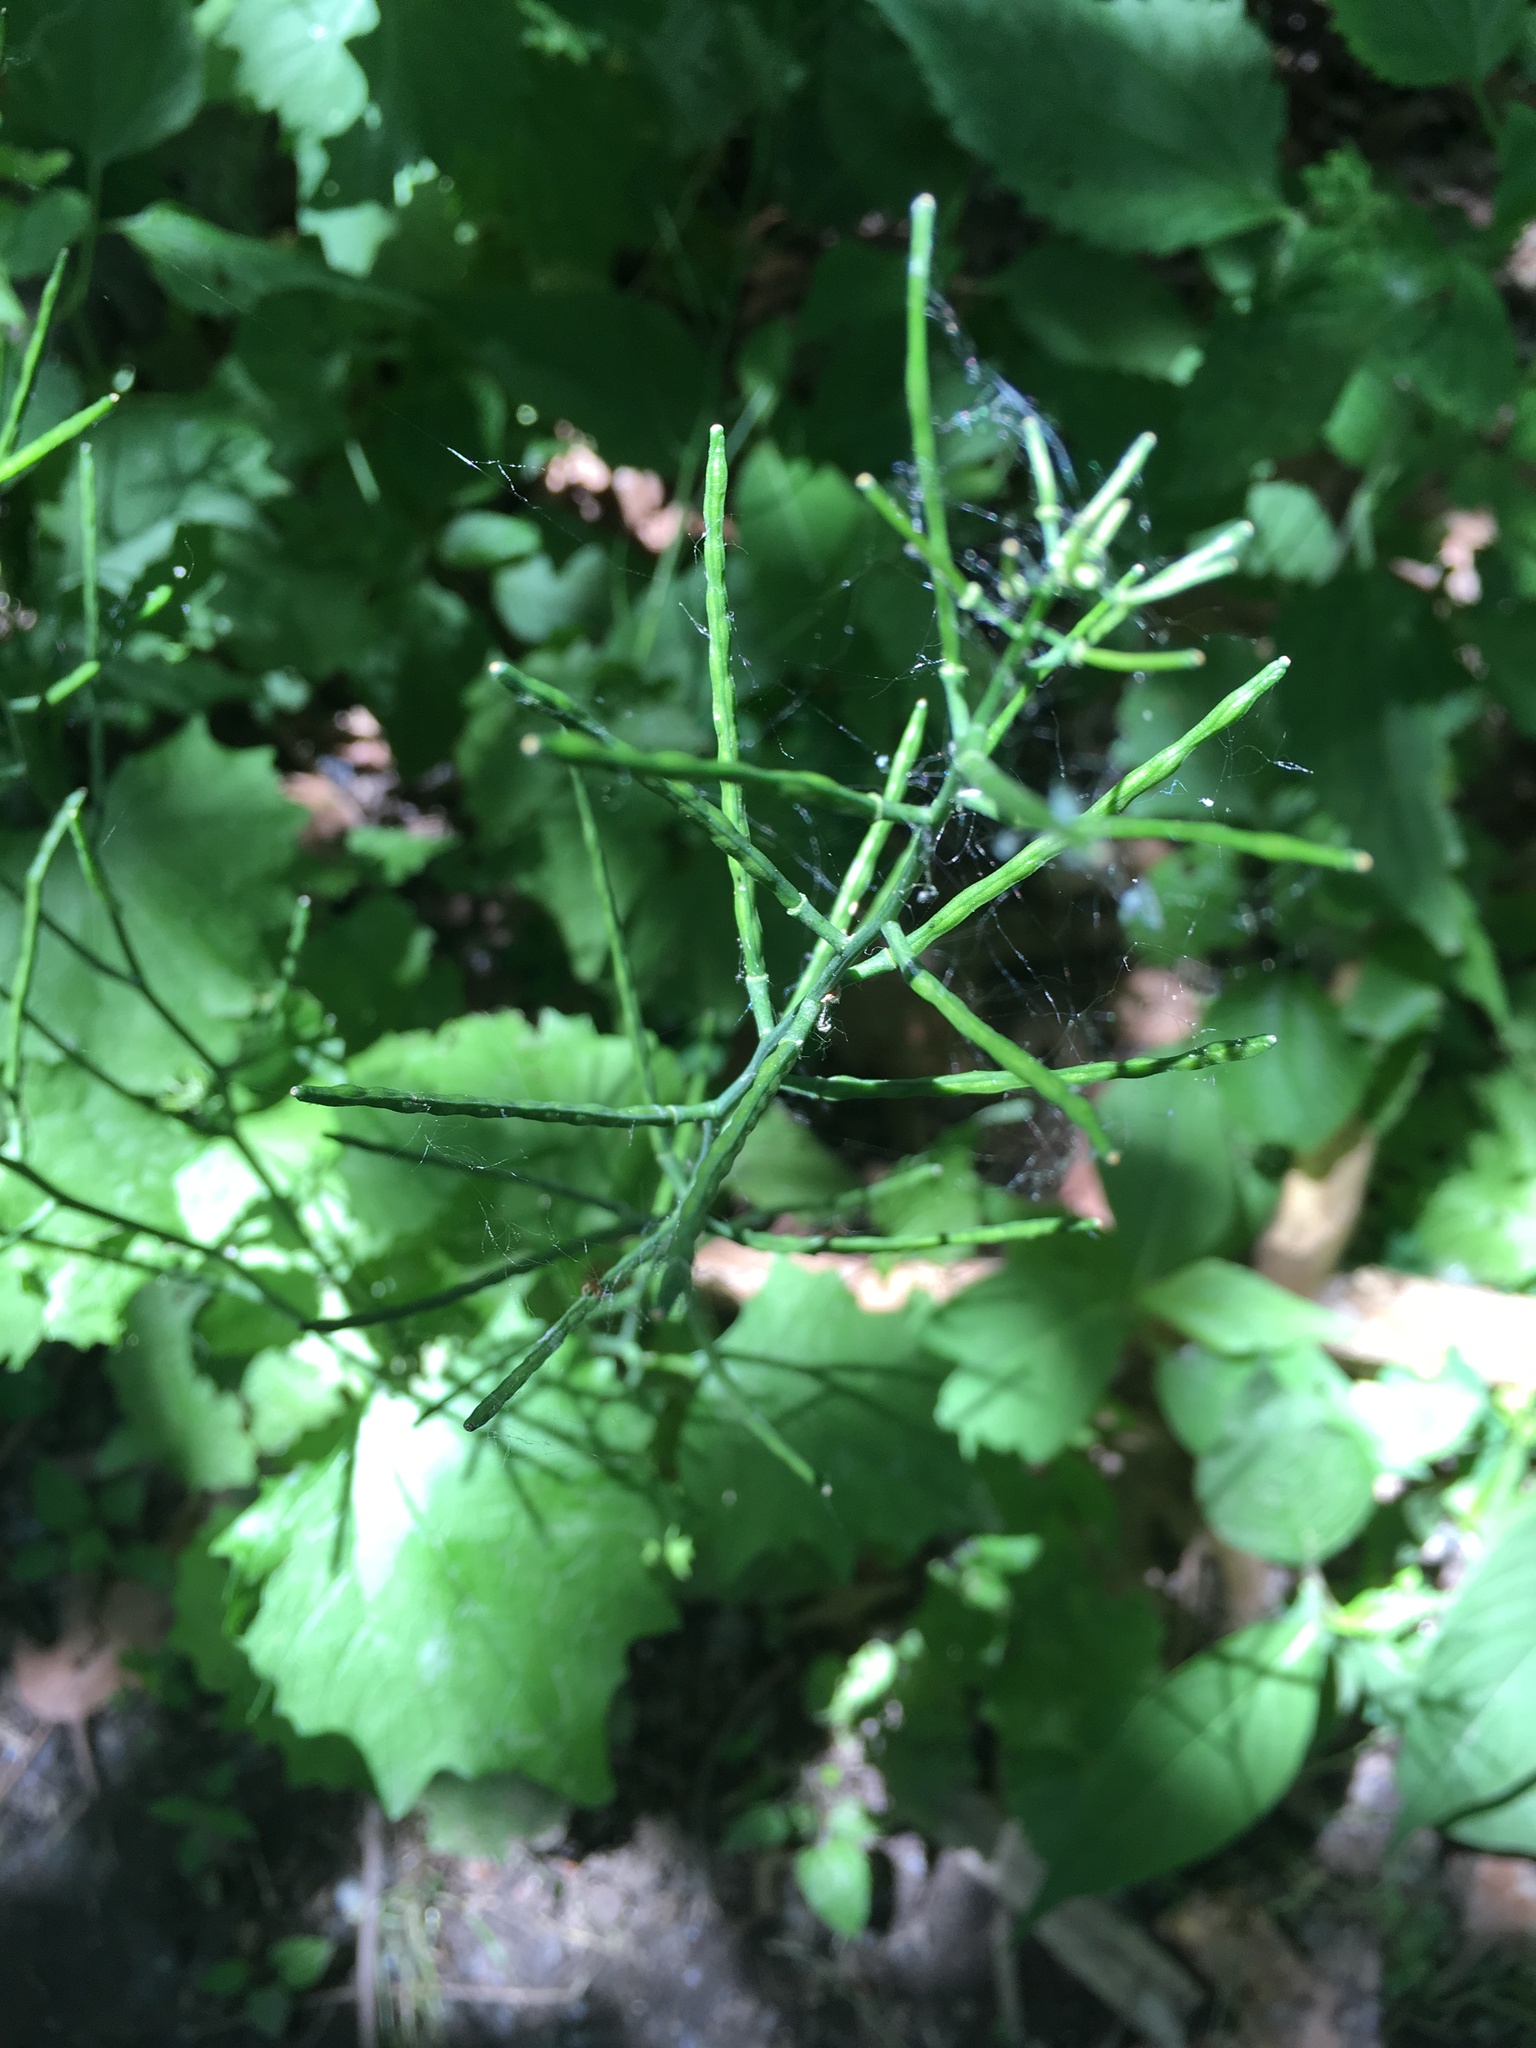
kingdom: Plantae
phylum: Tracheophyta
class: Magnoliopsida
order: Brassicales
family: Brassicaceae
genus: Alliaria
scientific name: Alliaria petiolata
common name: Garlic mustard
